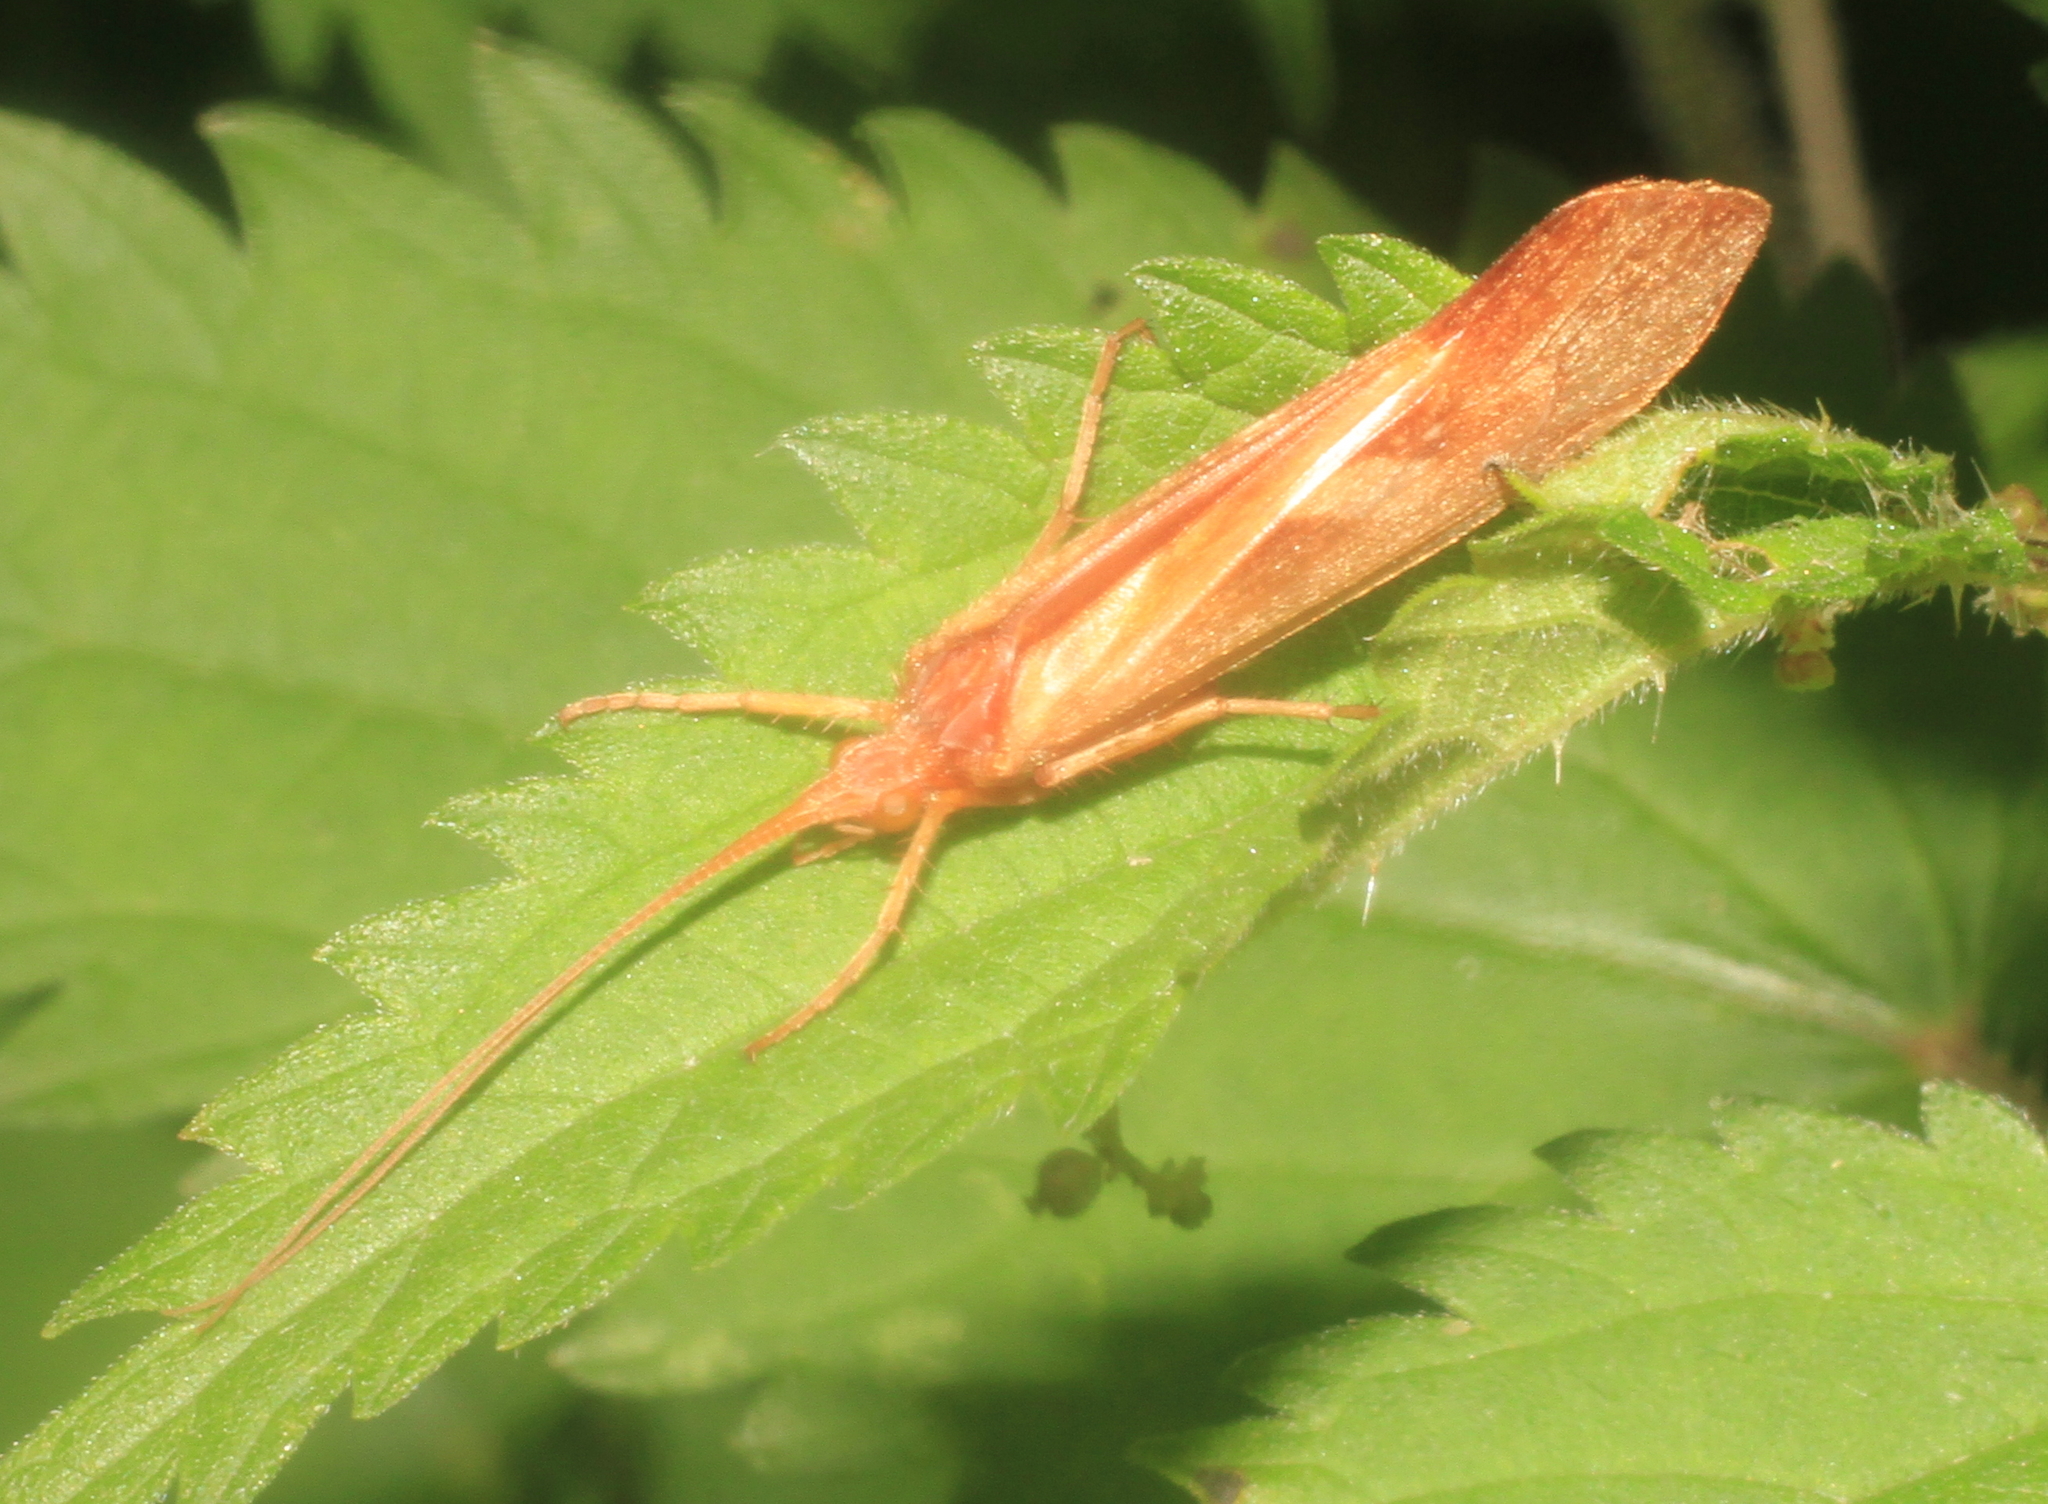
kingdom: Animalia
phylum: Arthropoda
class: Insecta
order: Trichoptera
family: Limnephilidae
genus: Limnephilus
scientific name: Limnephilus rhombicus
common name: Diamond northern caddisfly
